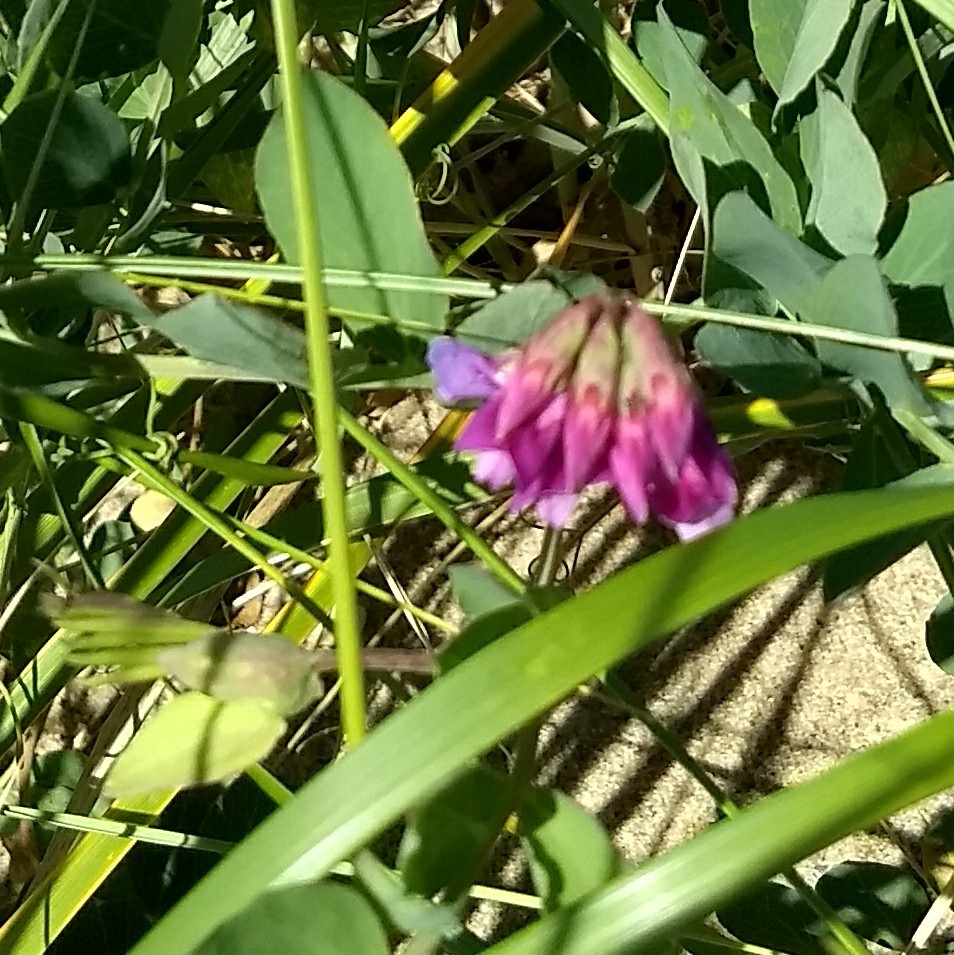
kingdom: Plantae
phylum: Tracheophyta
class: Magnoliopsida
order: Fabales
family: Fabaceae
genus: Lathyrus
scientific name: Lathyrus japonicus
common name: Sea pea
